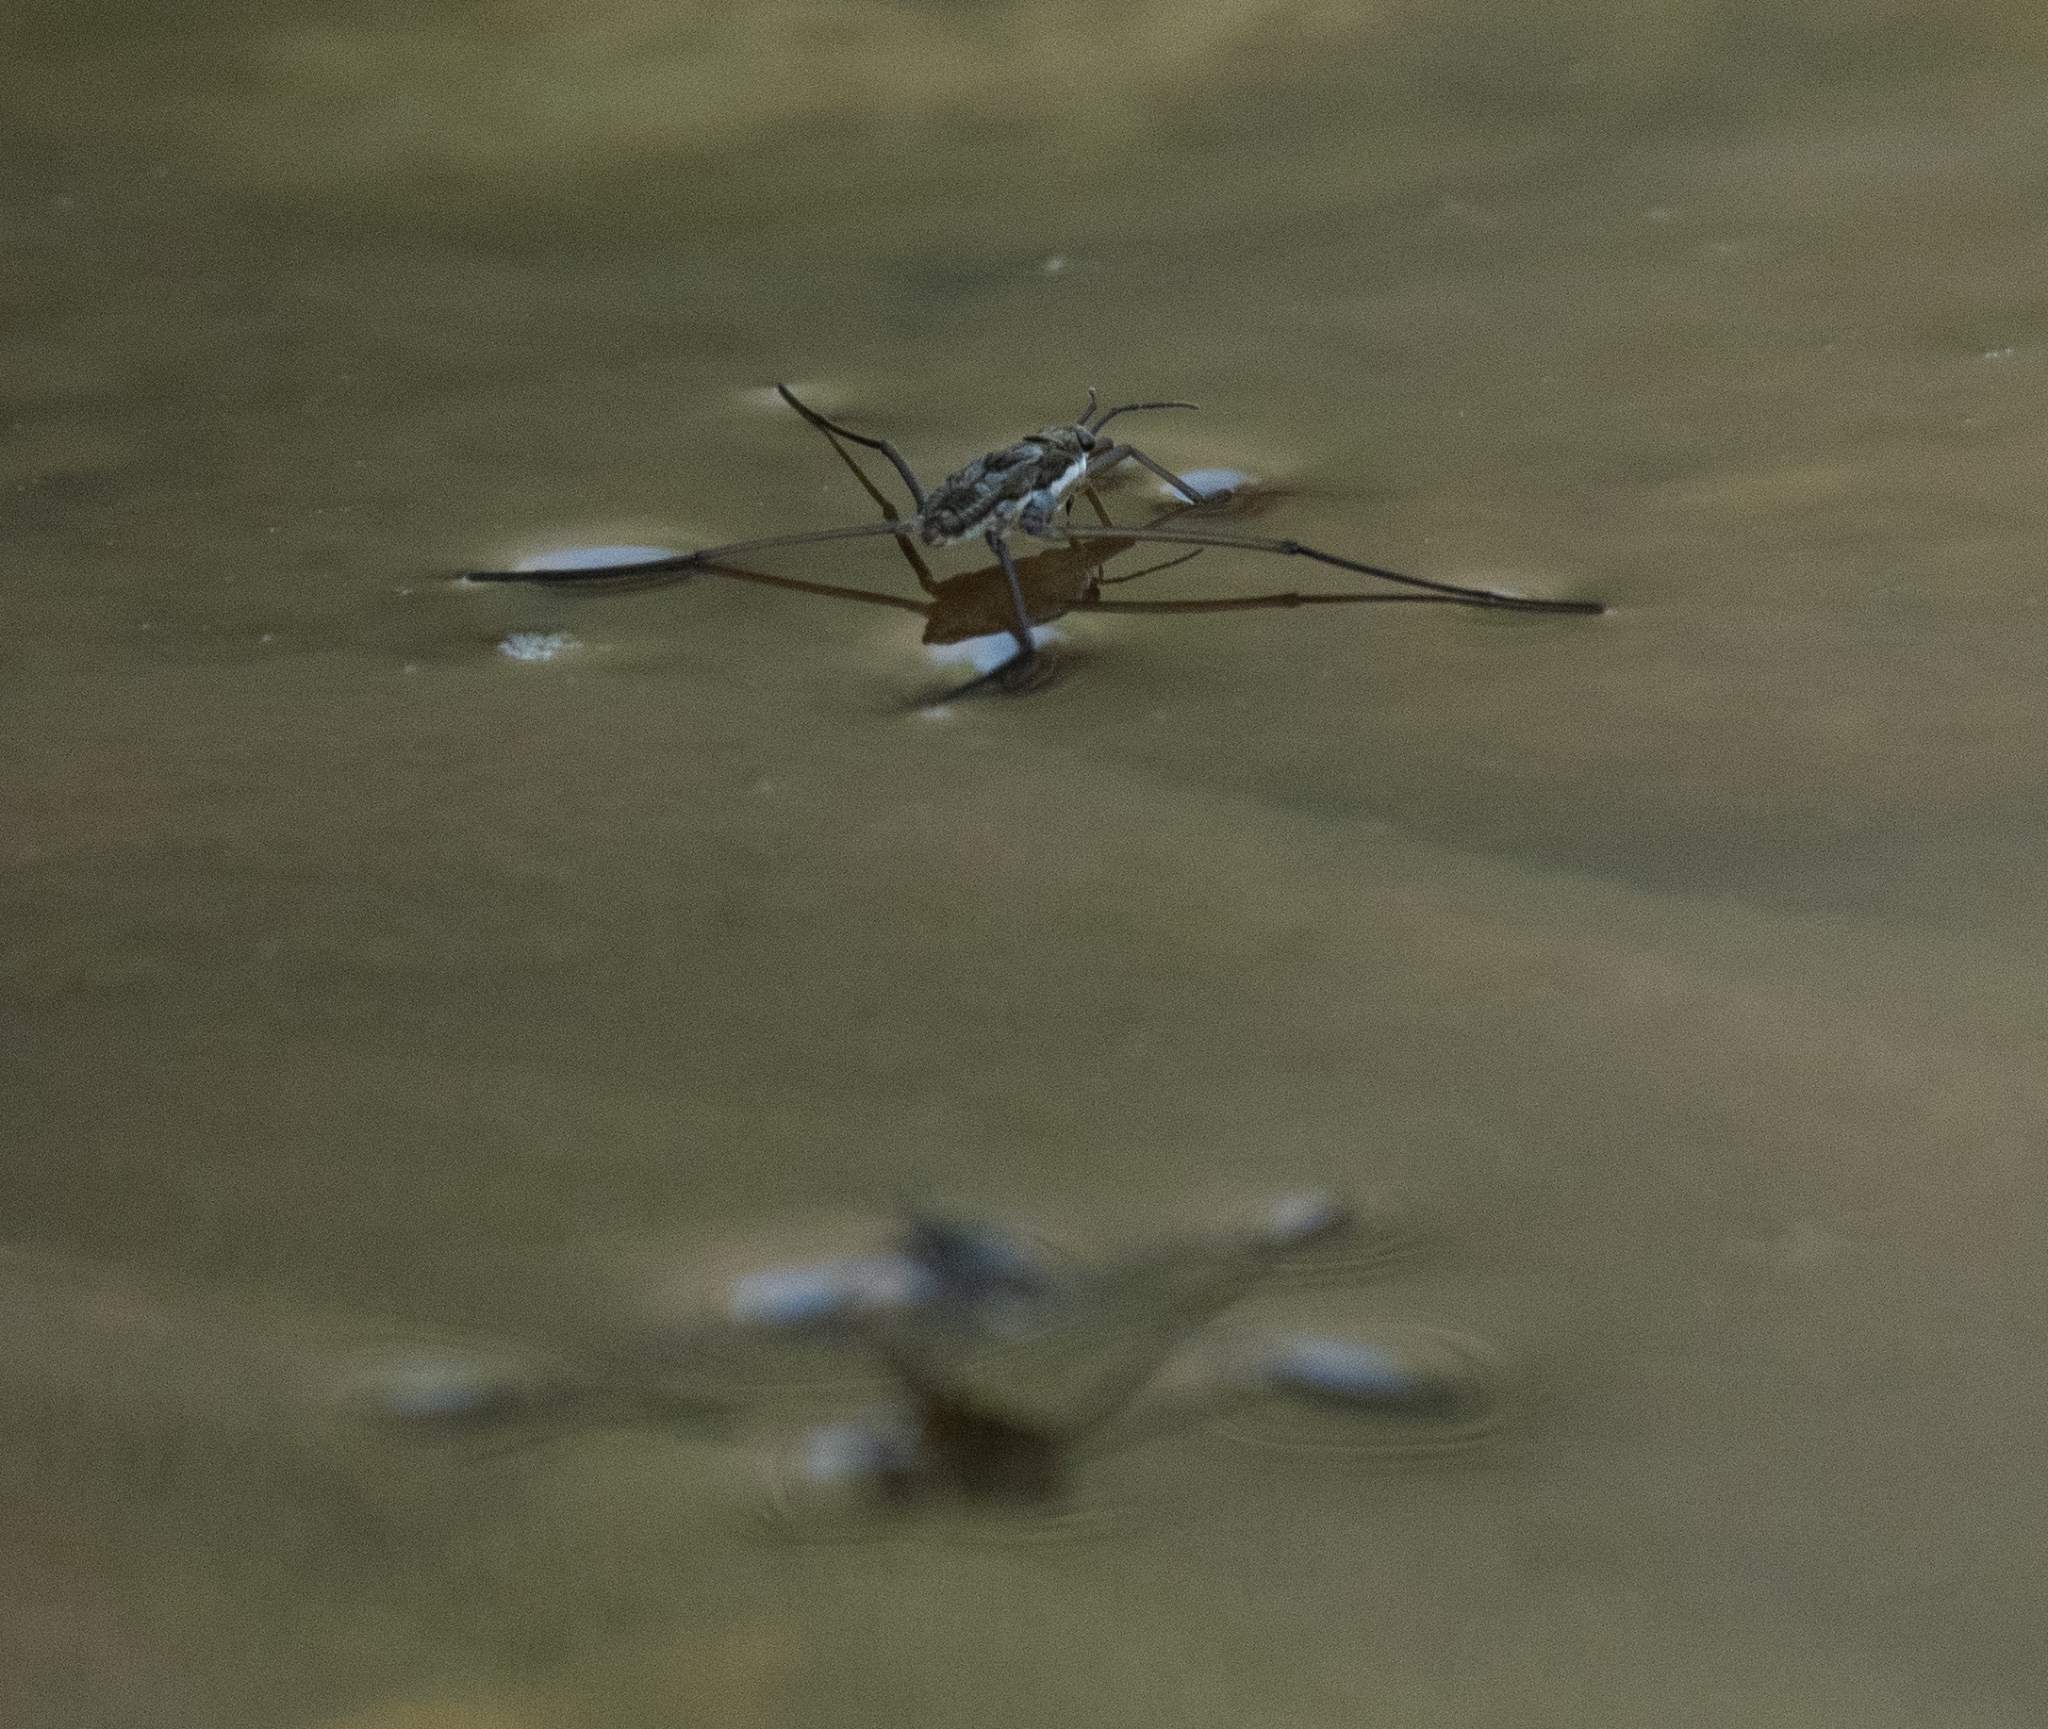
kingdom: Animalia
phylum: Arthropoda
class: Insecta
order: Hemiptera
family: Gerridae
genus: Aquarius
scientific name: Aquarius remigis
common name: Common water strider
